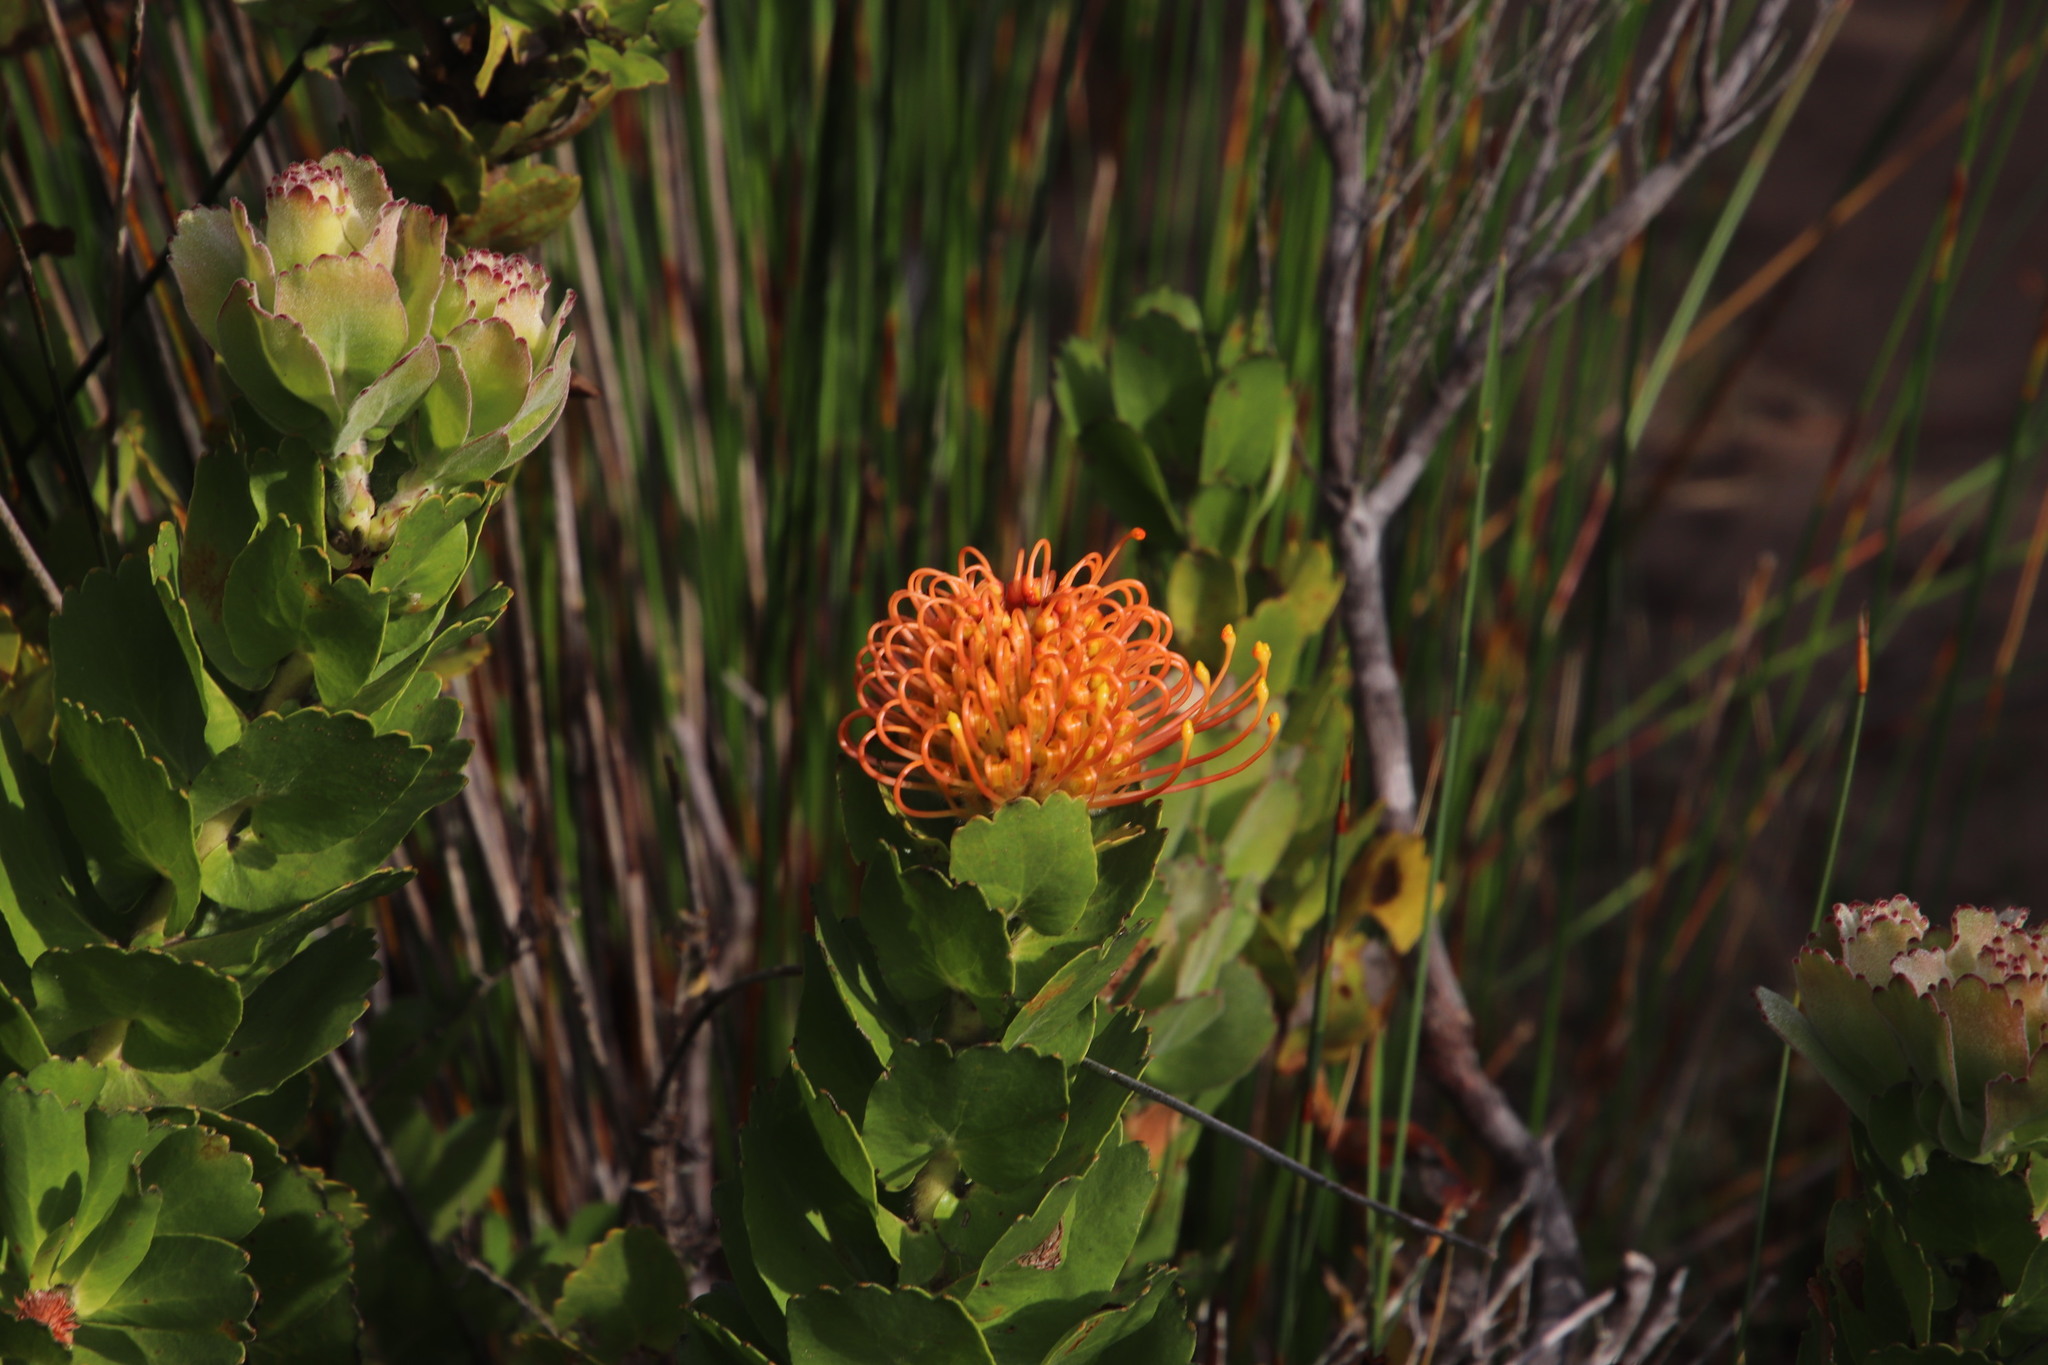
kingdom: Plantae
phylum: Tracheophyta
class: Magnoliopsida
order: Proteales
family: Proteaceae
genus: Leucospermum
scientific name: Leucospermum patersonii
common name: False tree pincushion
